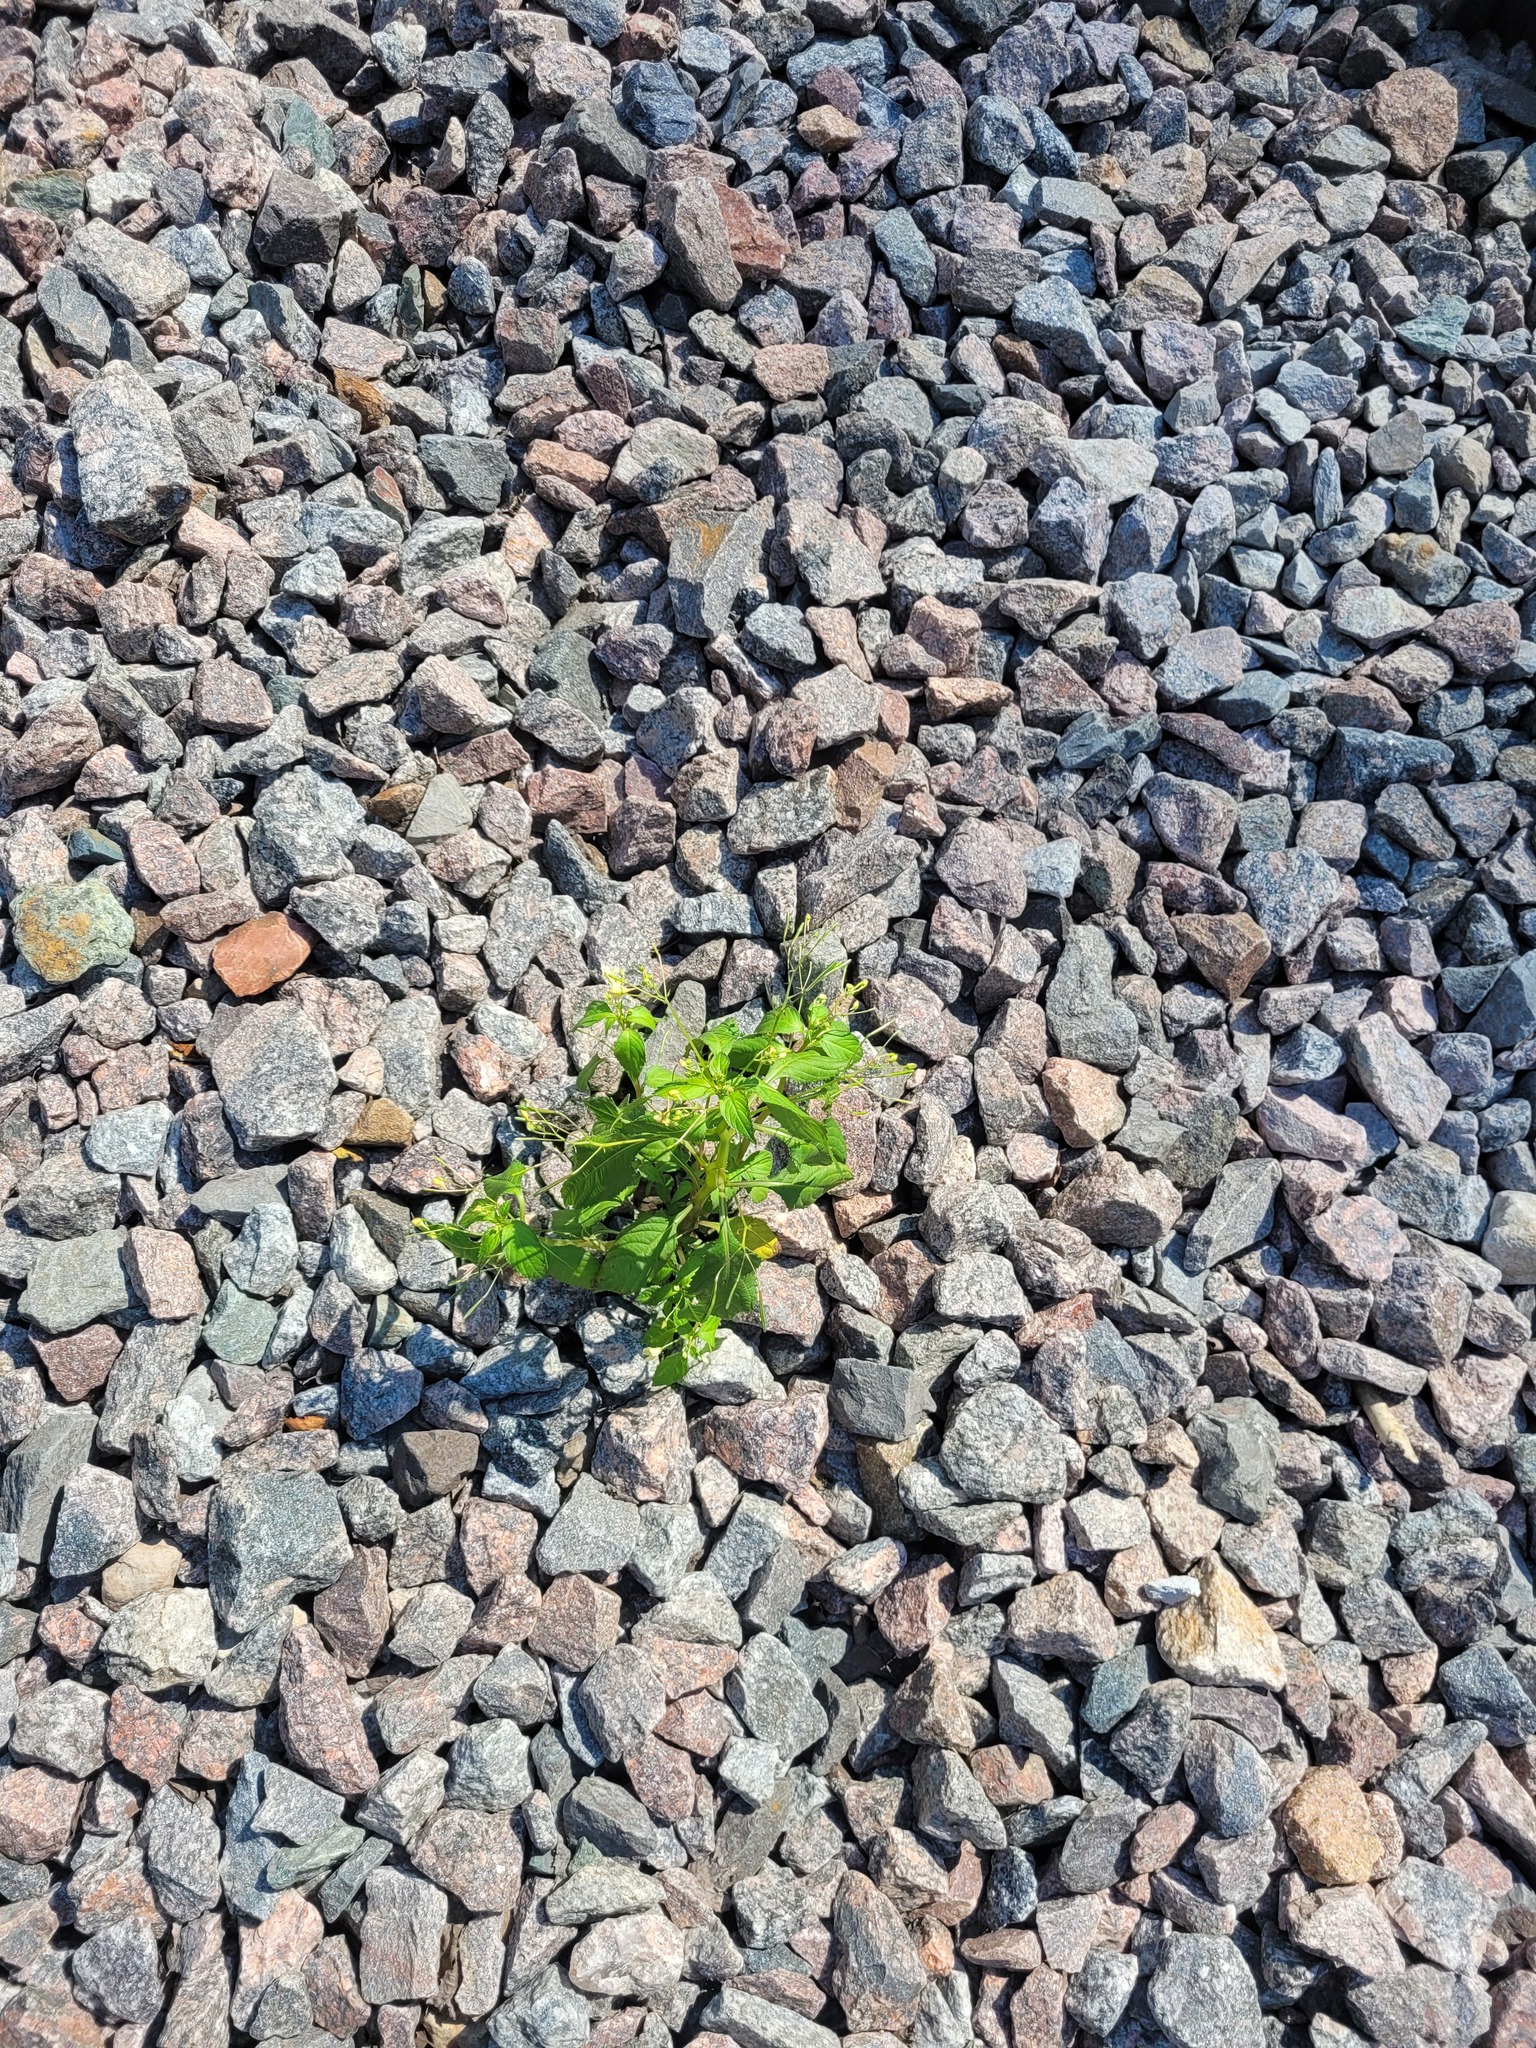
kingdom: Plantae
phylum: Tracheophyta
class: Magnoliopsida
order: Ericales
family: Balsaminaceae
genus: Impatiens
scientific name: Impatiens parviflora
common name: Small balsam
